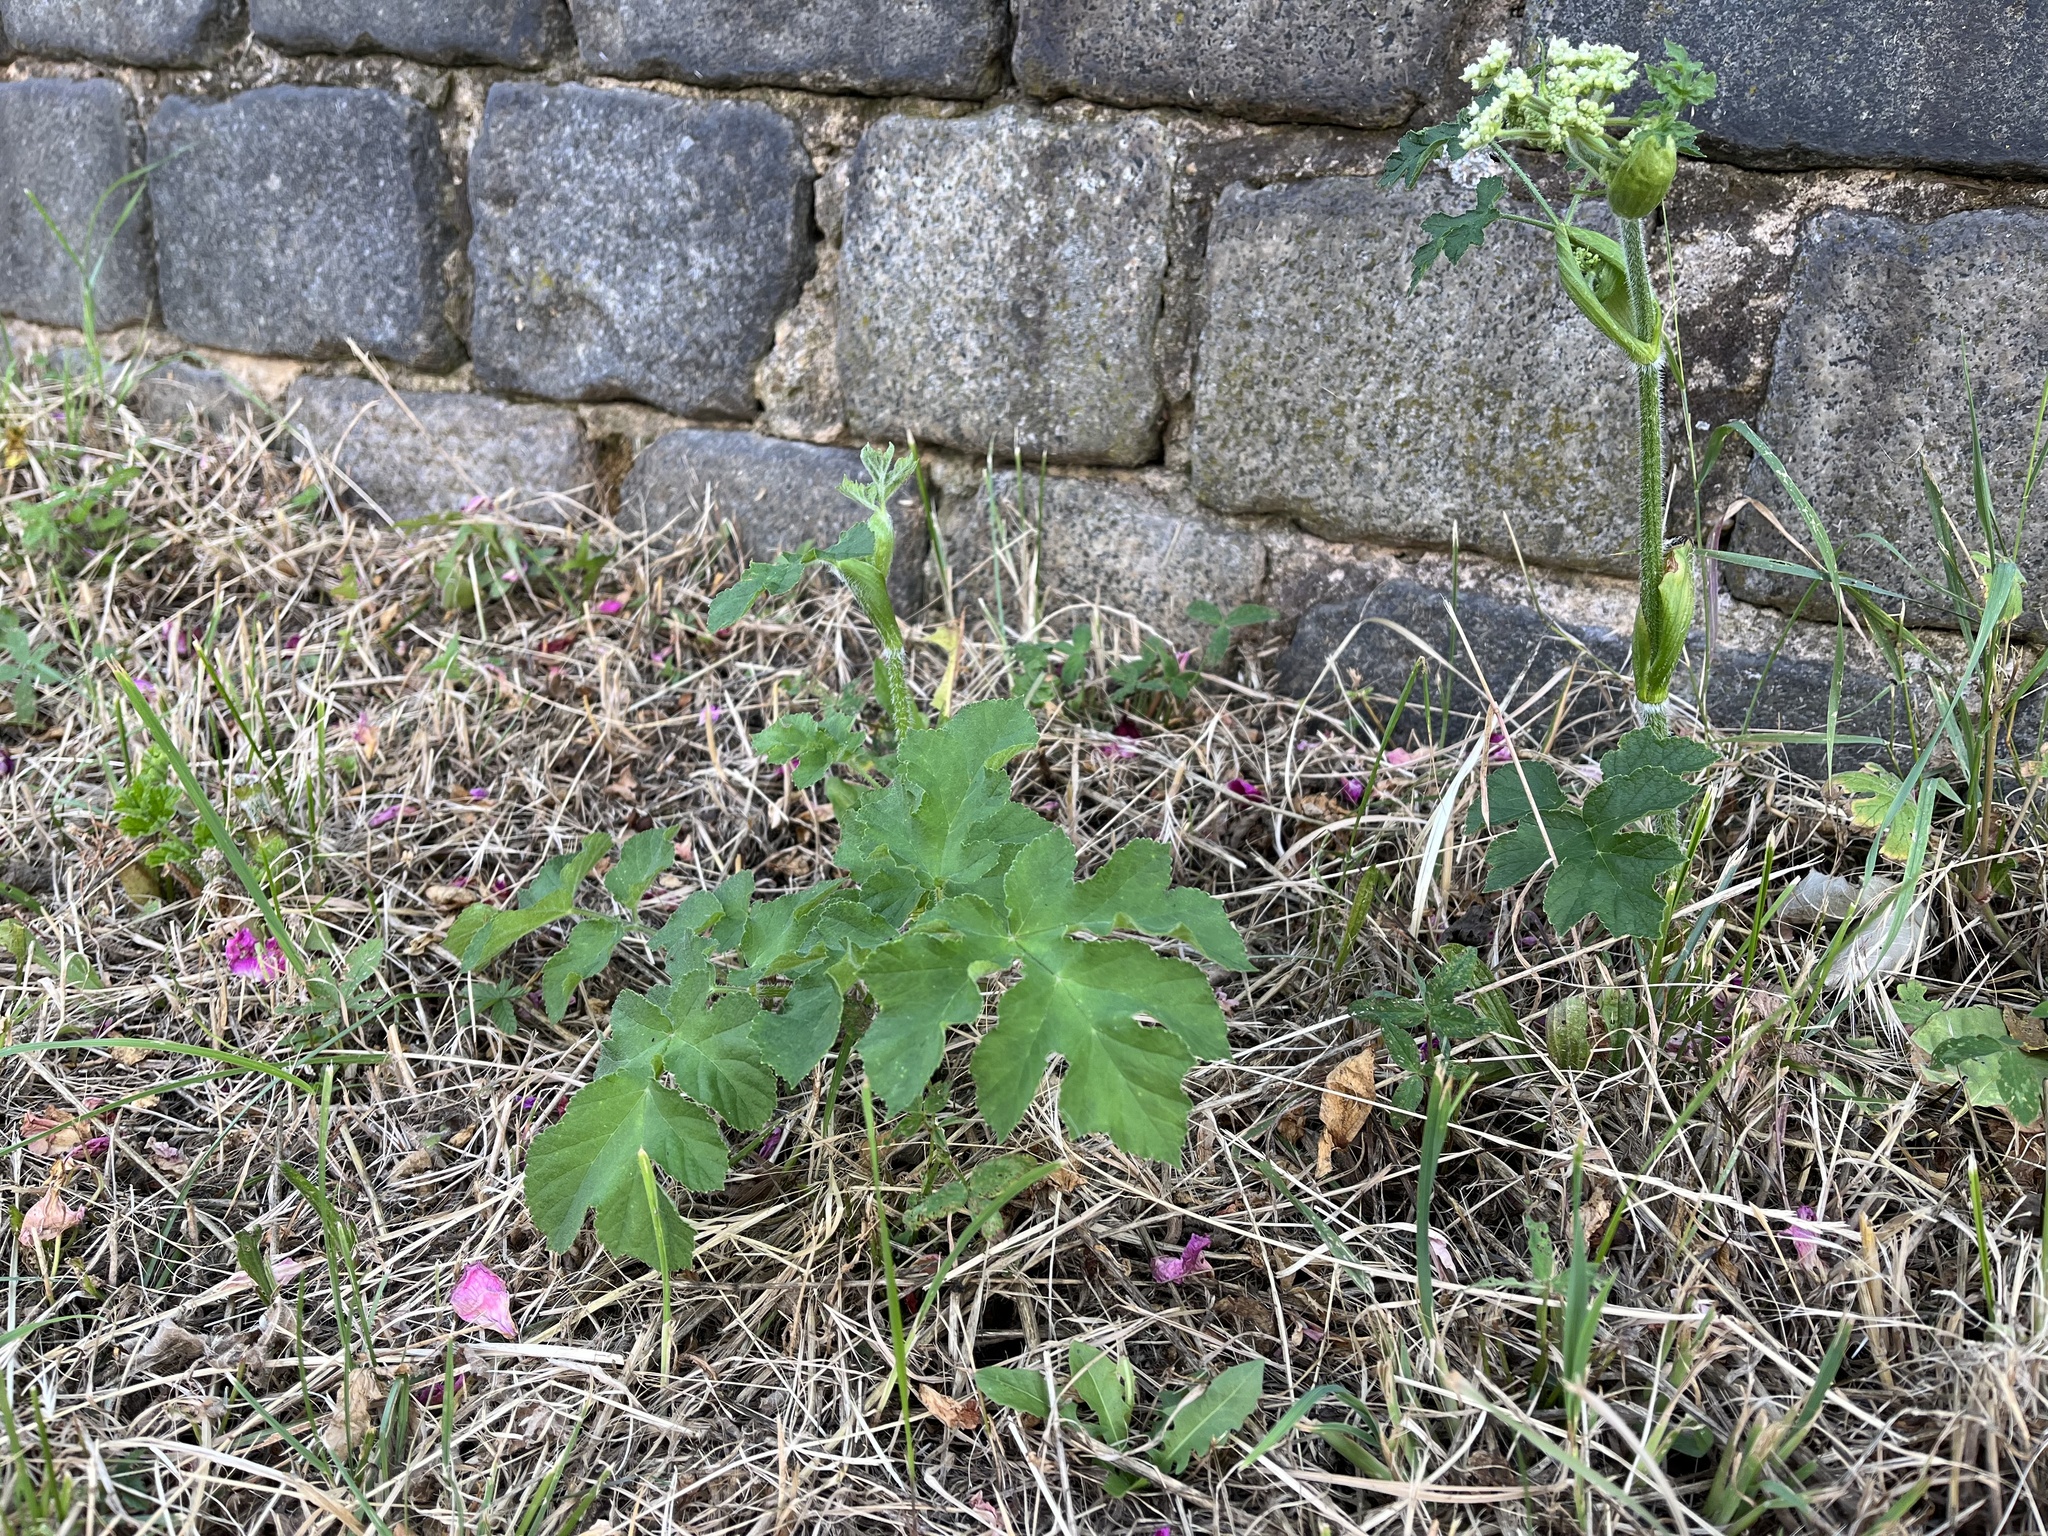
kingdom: Plantae
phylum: Tracheophyta
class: Magnoliopsida
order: Apiales
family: Apiaceae
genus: Heracleum
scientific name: Heracleum sphondylium
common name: Hogweed
